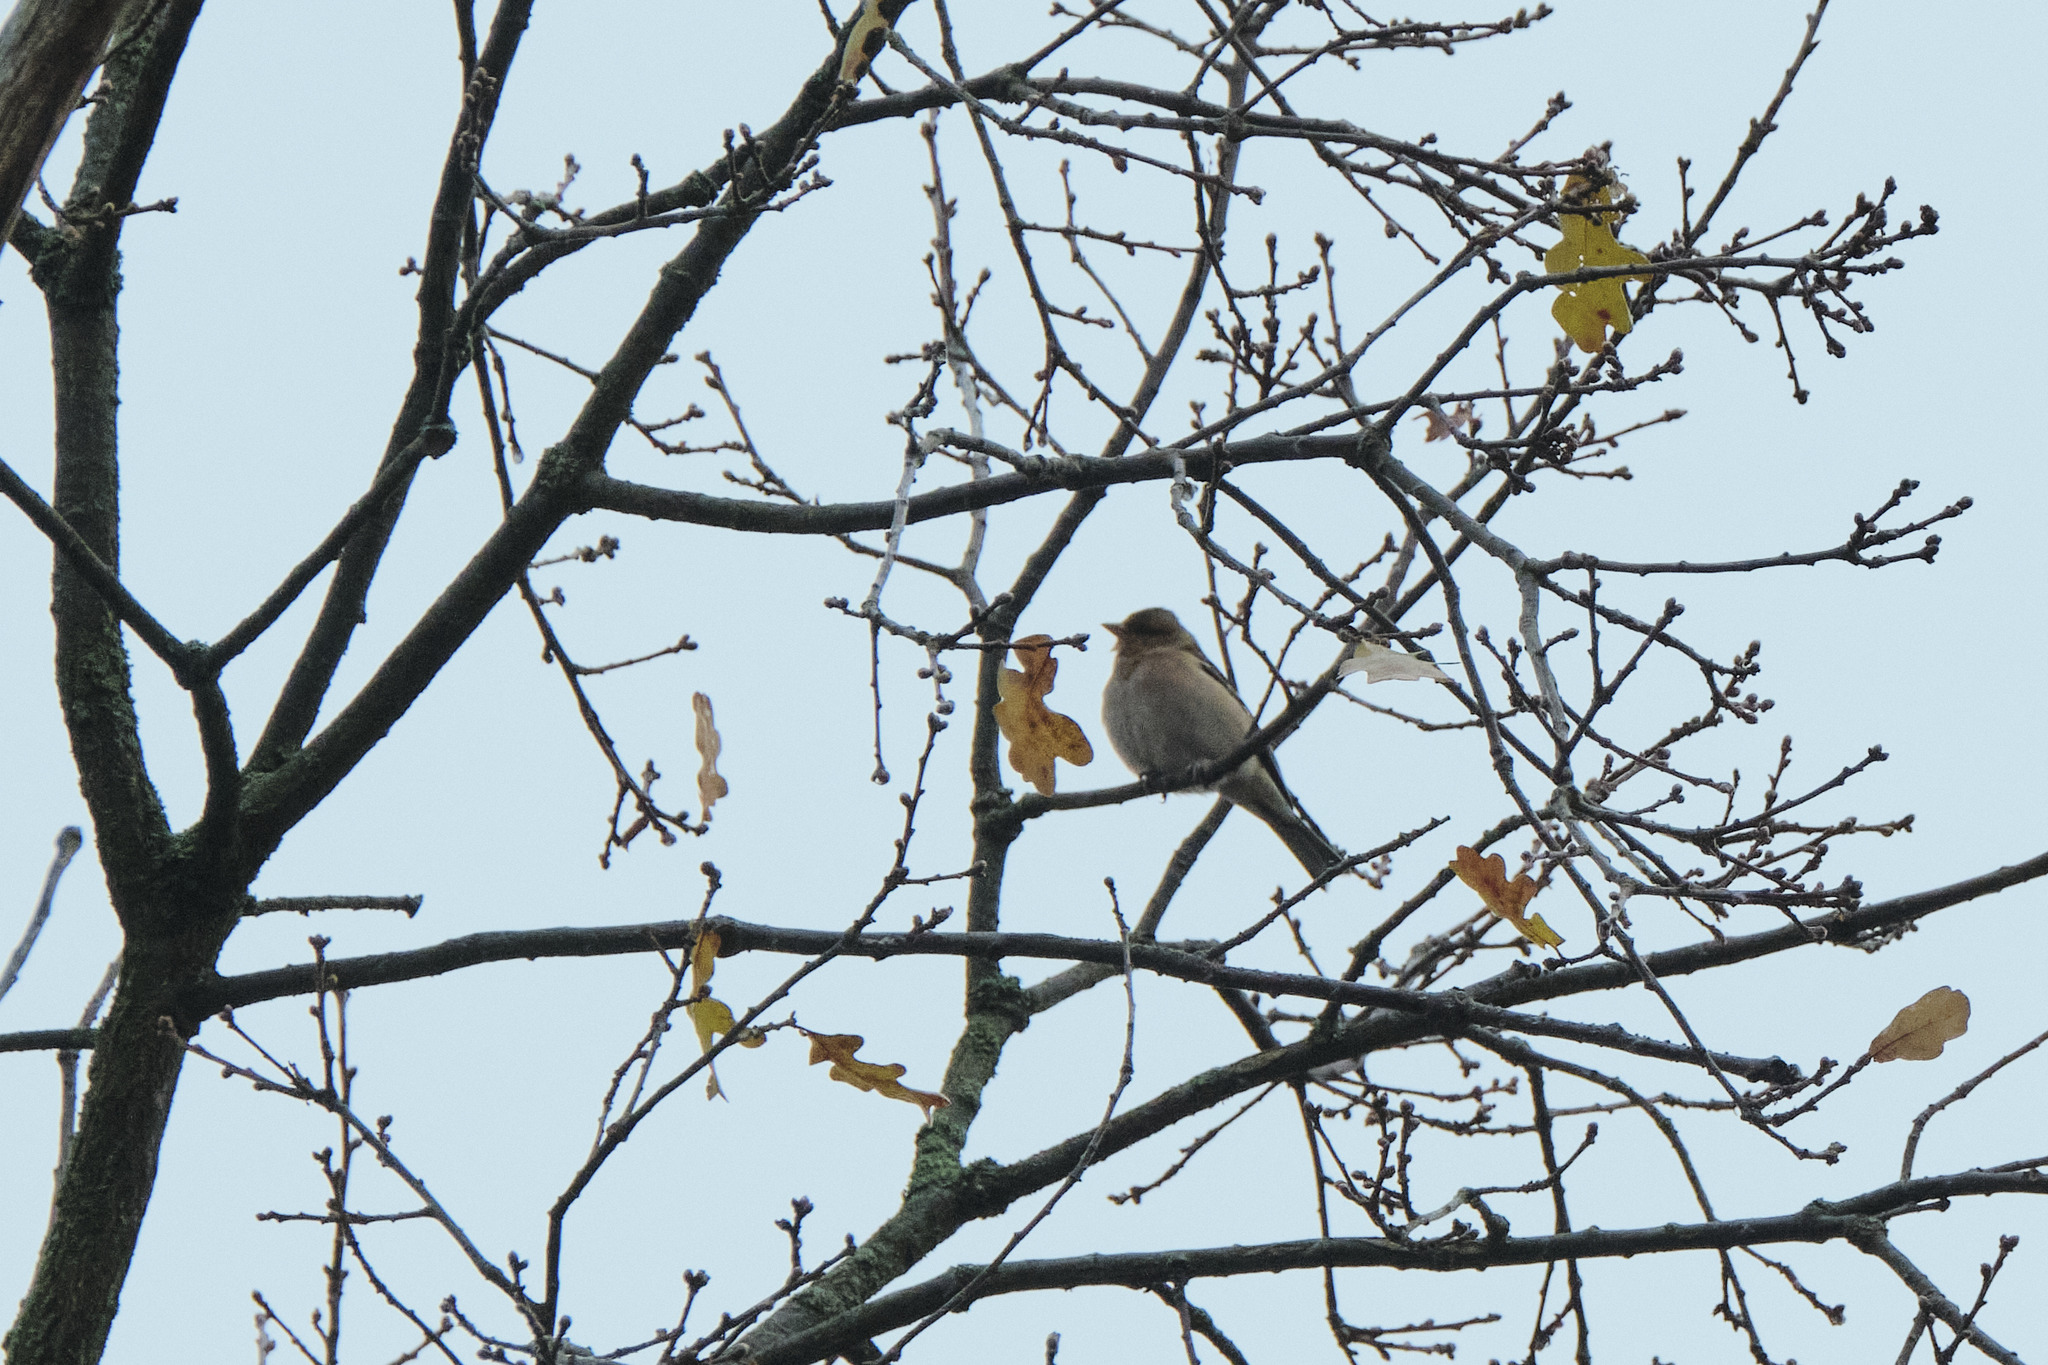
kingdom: Animalia
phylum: Chordata
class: Aves
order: Passeriformes
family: Fringillidae
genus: Fringilla
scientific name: Fringilla coelebs
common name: Common chaffinch
